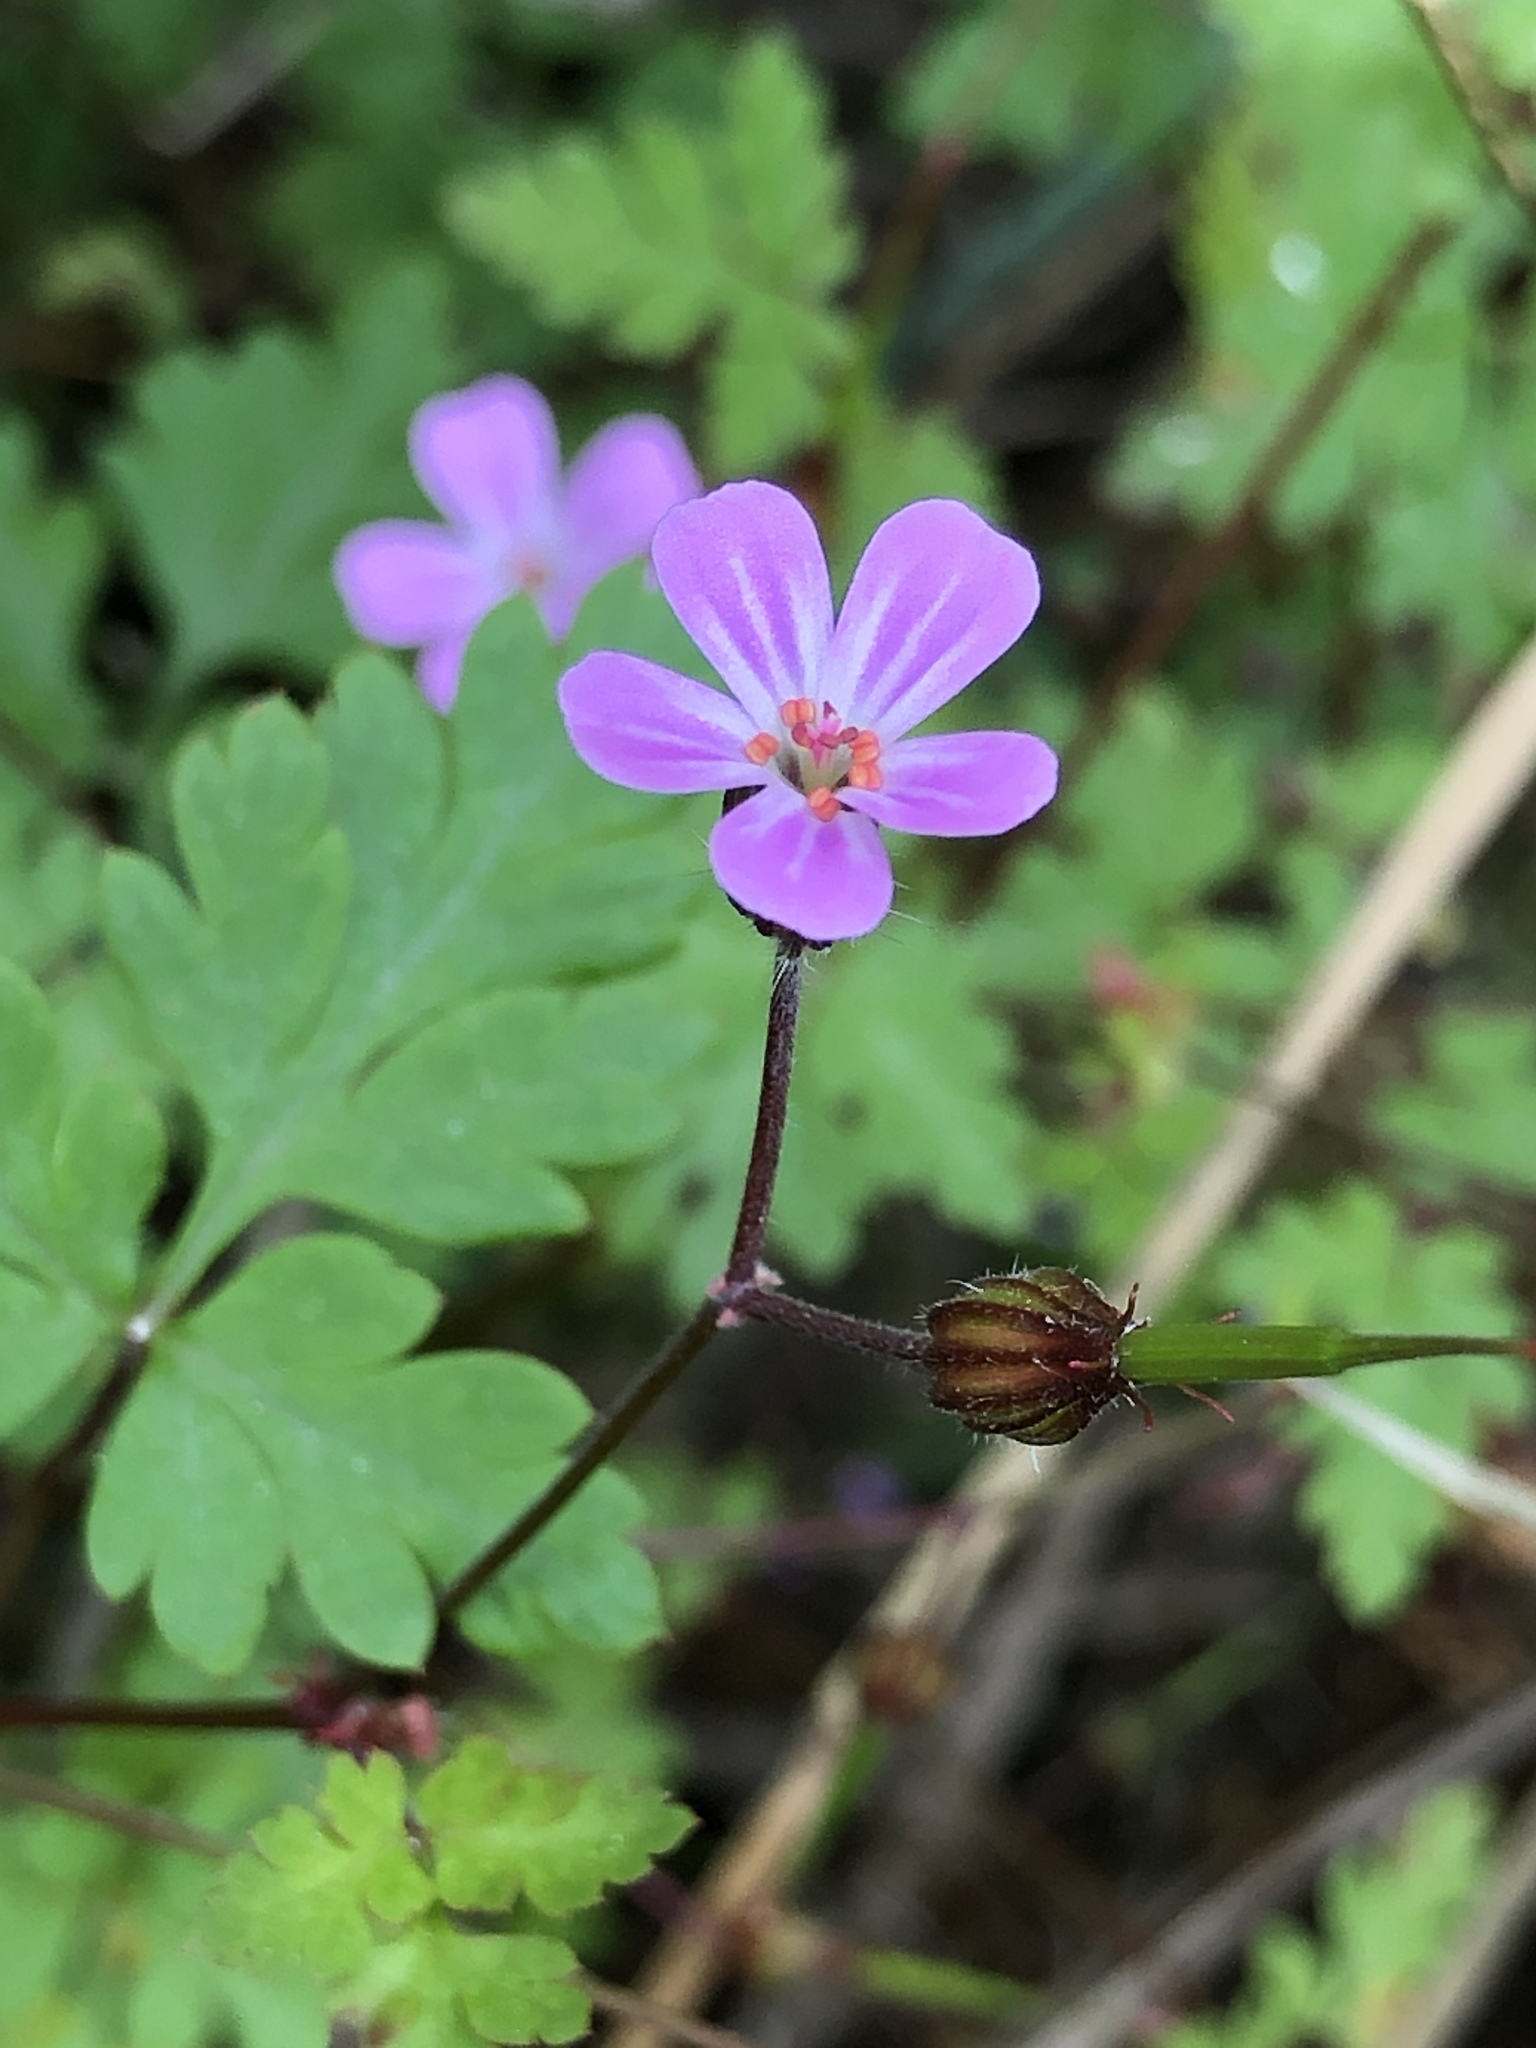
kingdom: Plantae
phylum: Tracheophyta
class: Magnoliopsida
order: Geraniales
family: Geraniaceae
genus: Geranium
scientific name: Geranium robertianum
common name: Herb-robert
